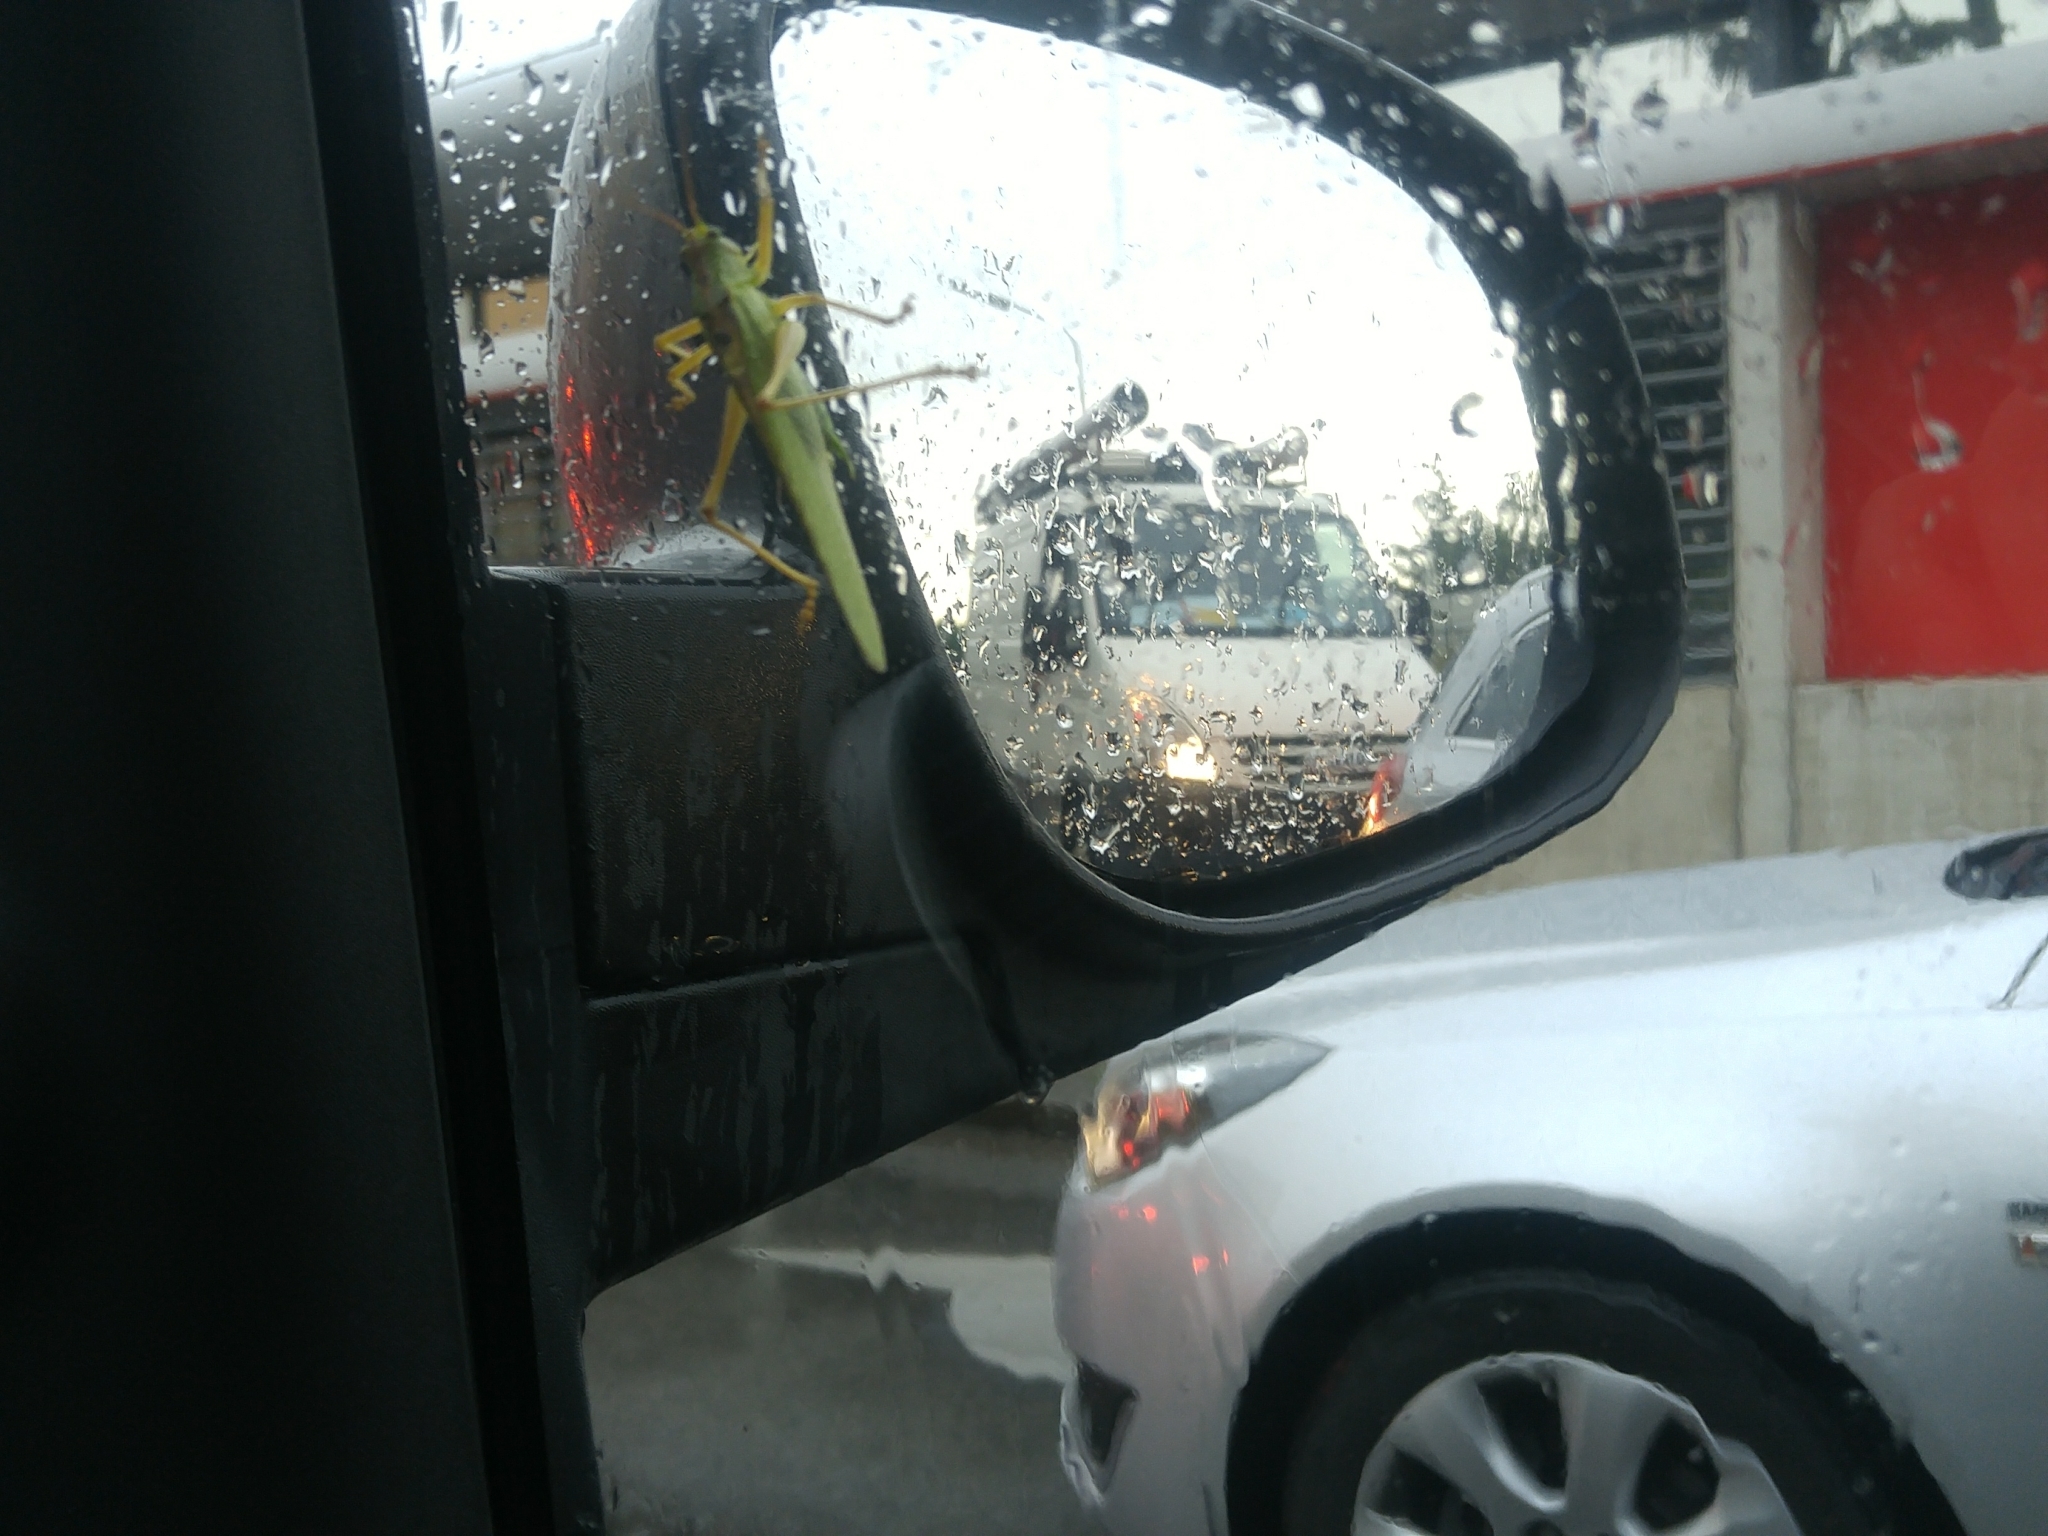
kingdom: Animalia
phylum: Arthropoda
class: Insecta
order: Orthoptera
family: Tettigoniidae
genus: Tettigonia
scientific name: Tettigonia viridissima
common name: Great green bush-cricket
